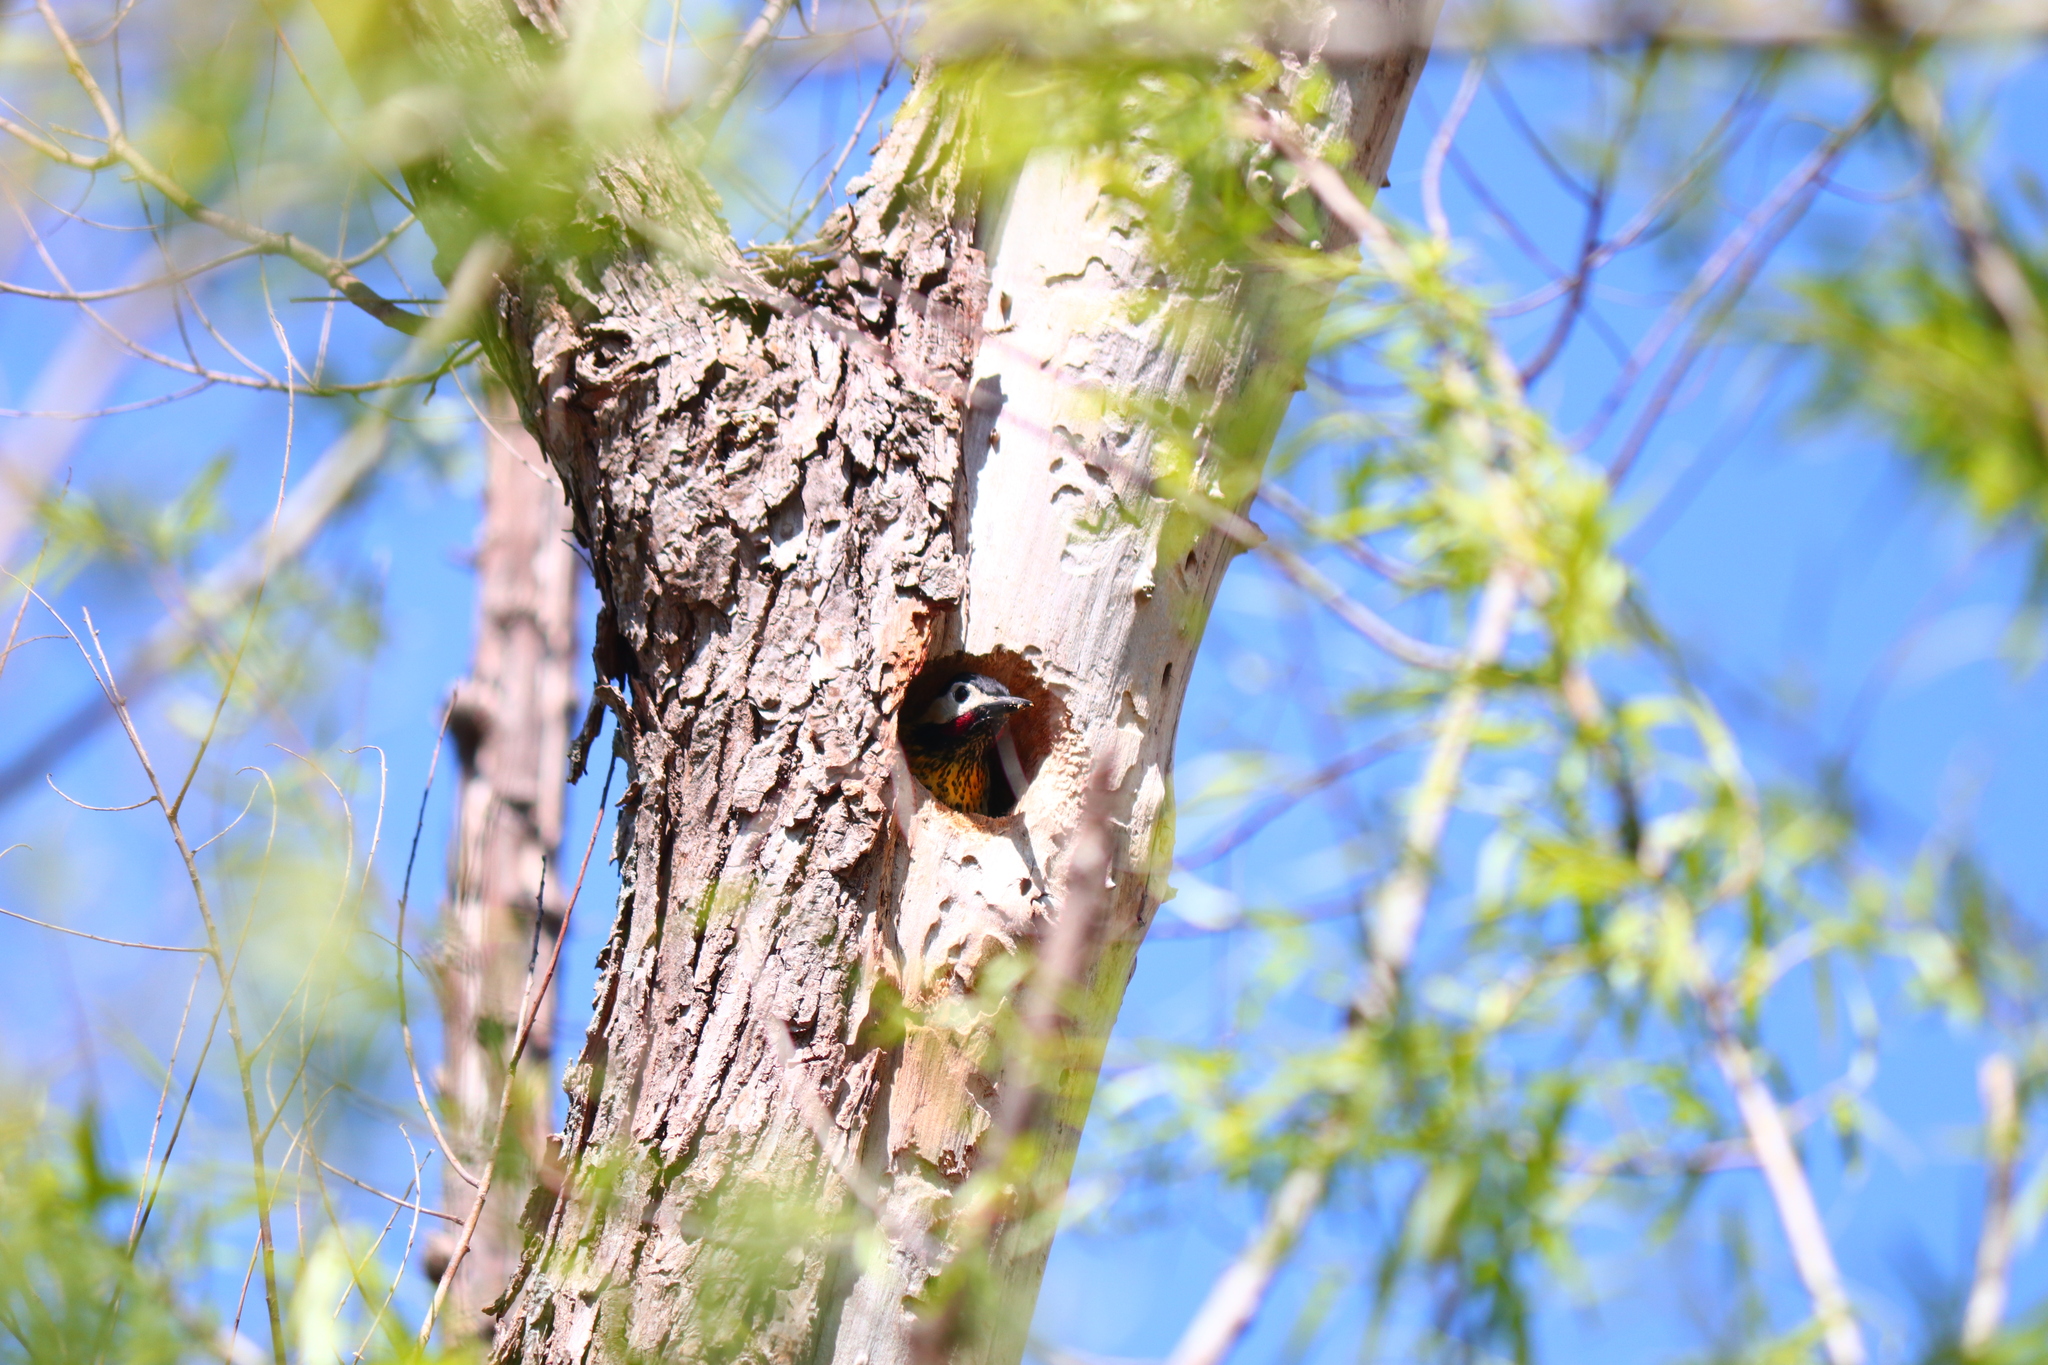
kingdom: Animalia
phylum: Chordata
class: Aves
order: Piciformes
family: Picidae
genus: Colaptes
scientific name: Colaptes melanochloros
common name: Green-barred woodpecker
